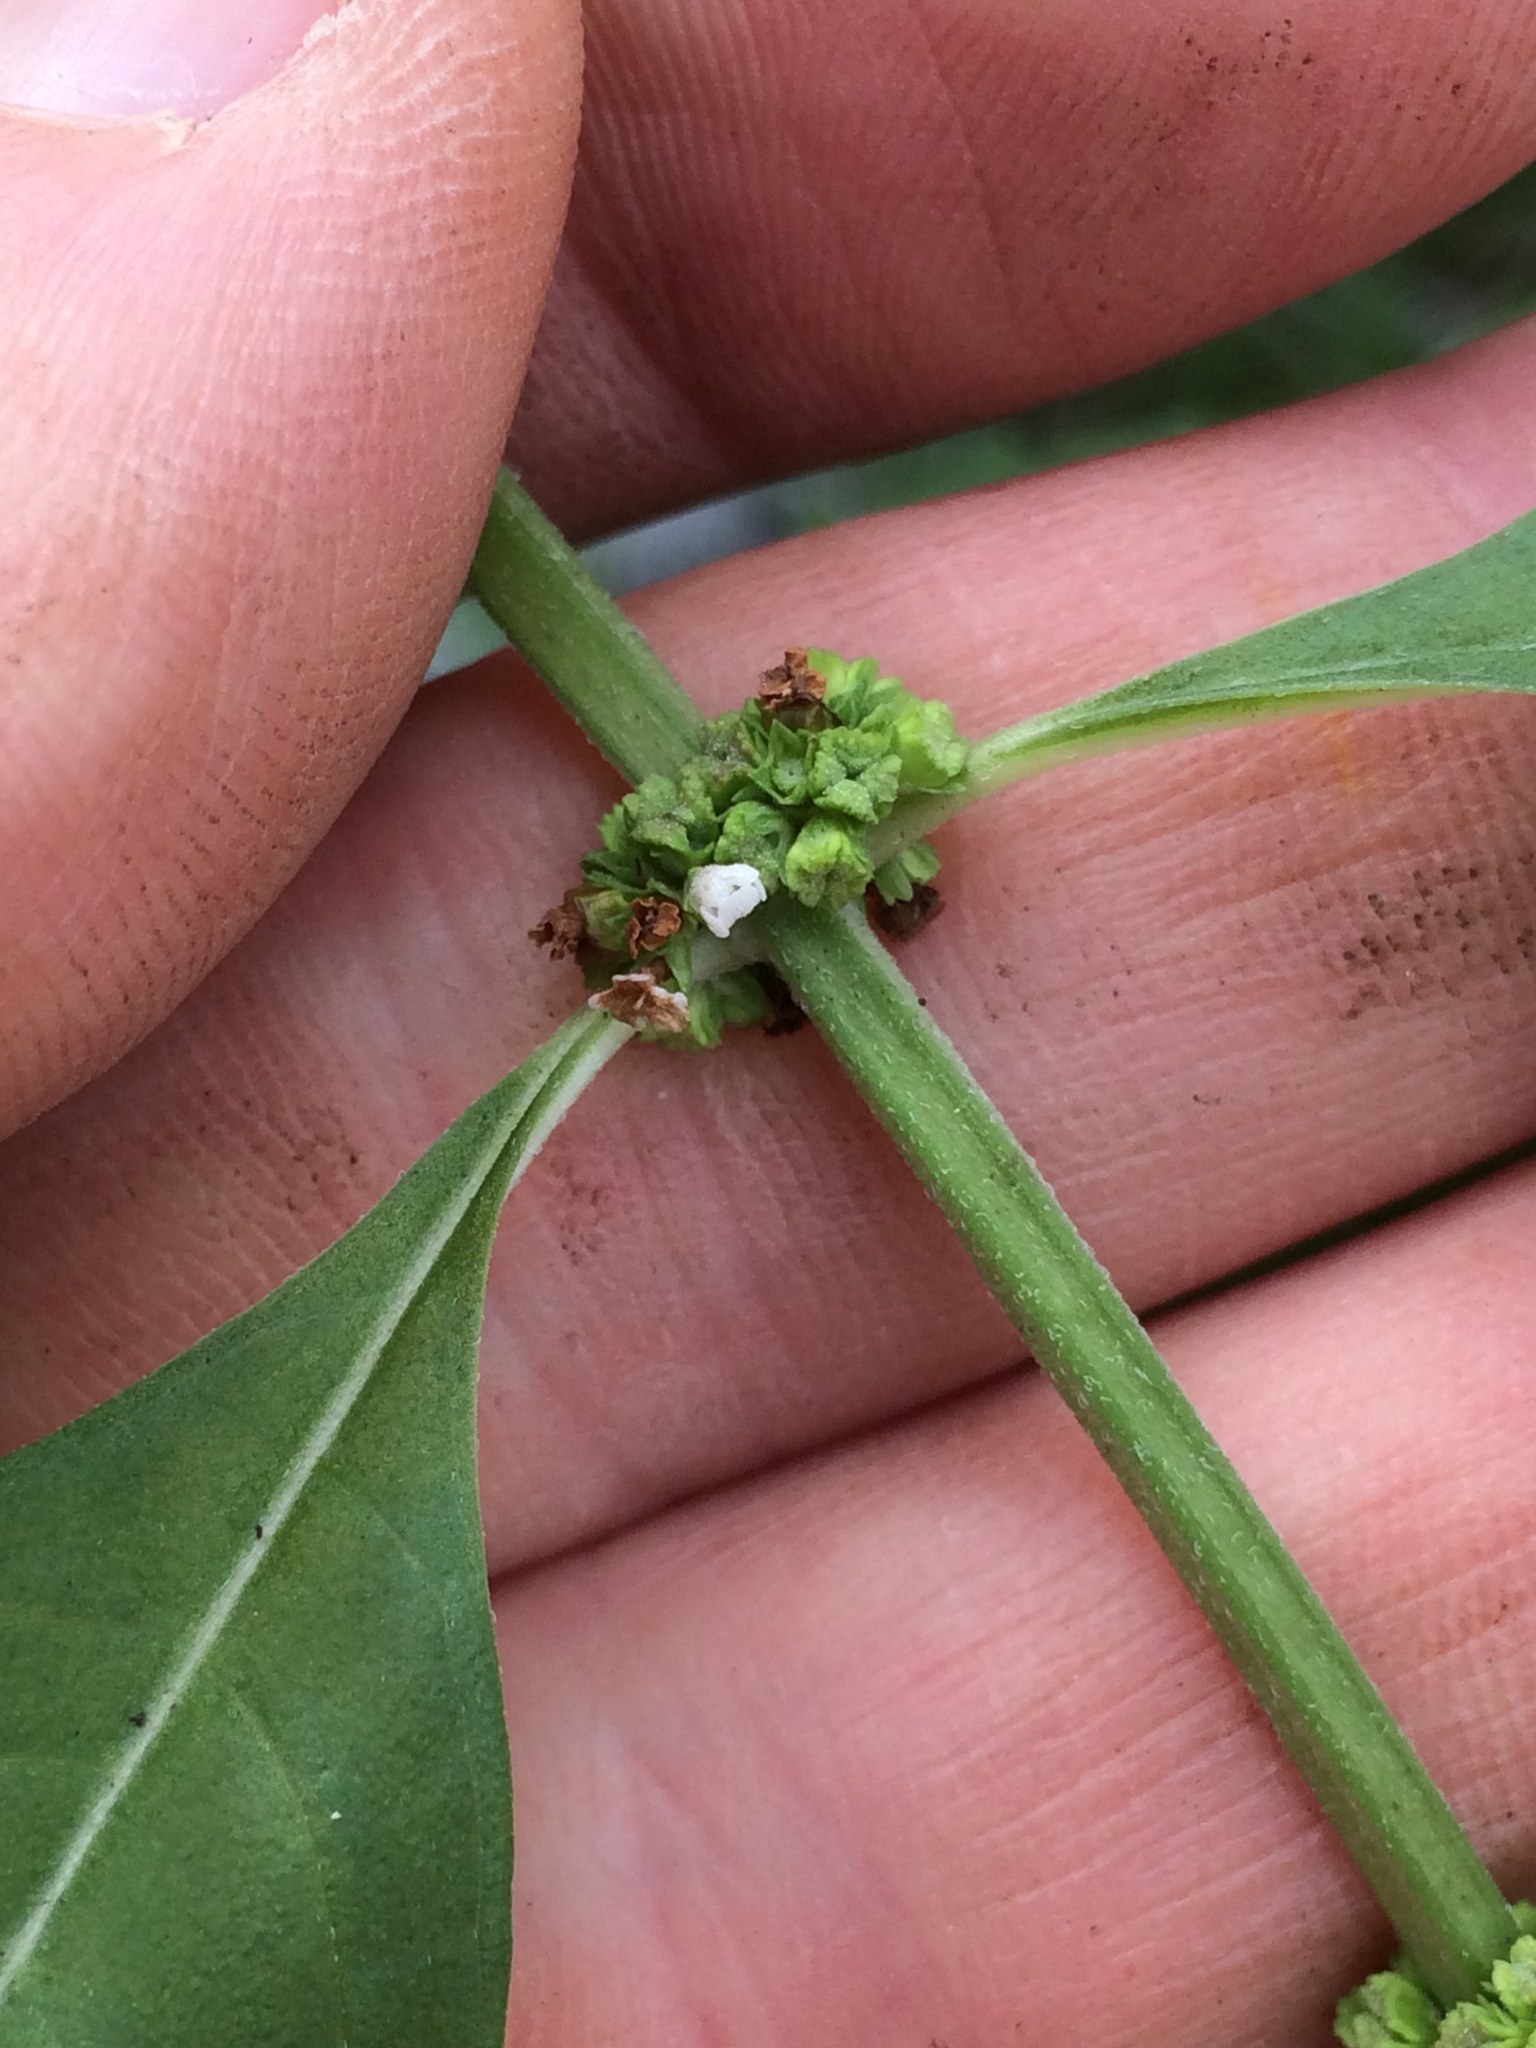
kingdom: Plantae
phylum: Tracheophyta
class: Magnoliopsida
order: Lamiales
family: Lamiaceae
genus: Lycopus
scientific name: Lycopus uniflorus
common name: Northern bugleweed
